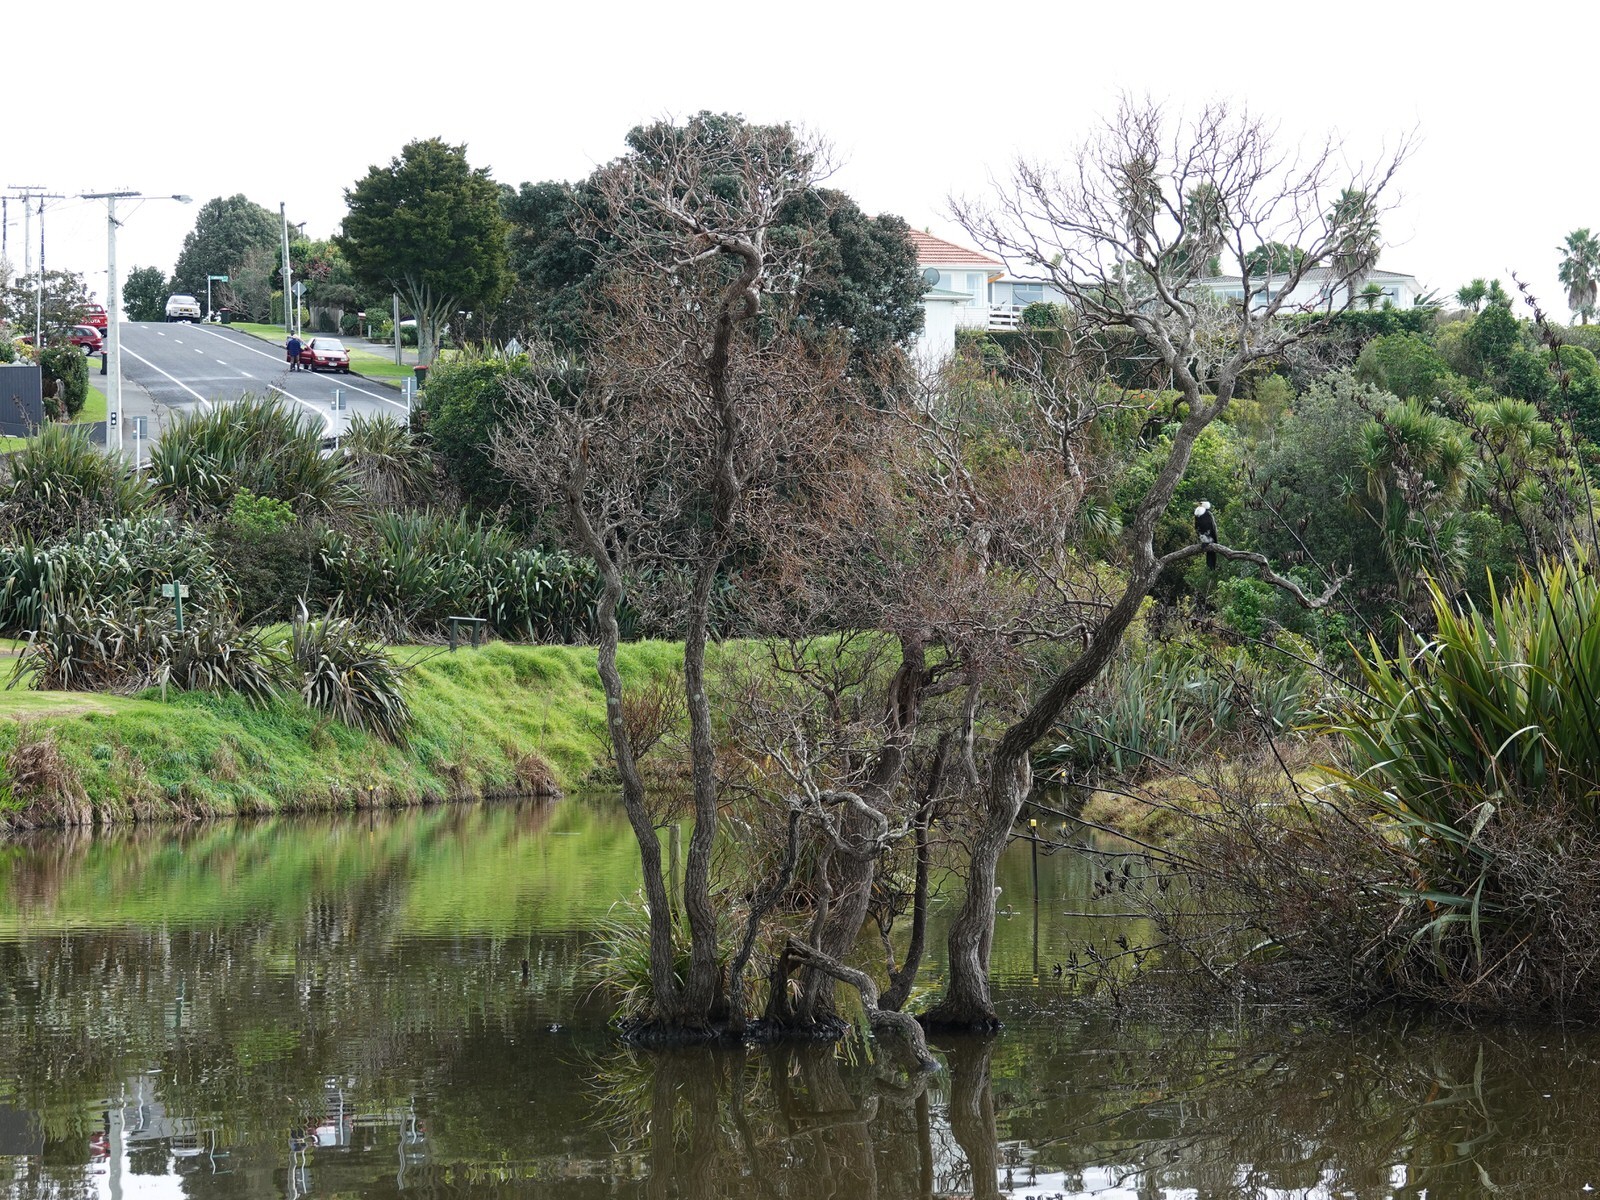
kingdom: Animalia
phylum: Chordata
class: Aves
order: Suliformes
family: Phalacrocoracidae
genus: Microcarbo
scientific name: Microcarbo melanoleucos
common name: Little pied cormorant
